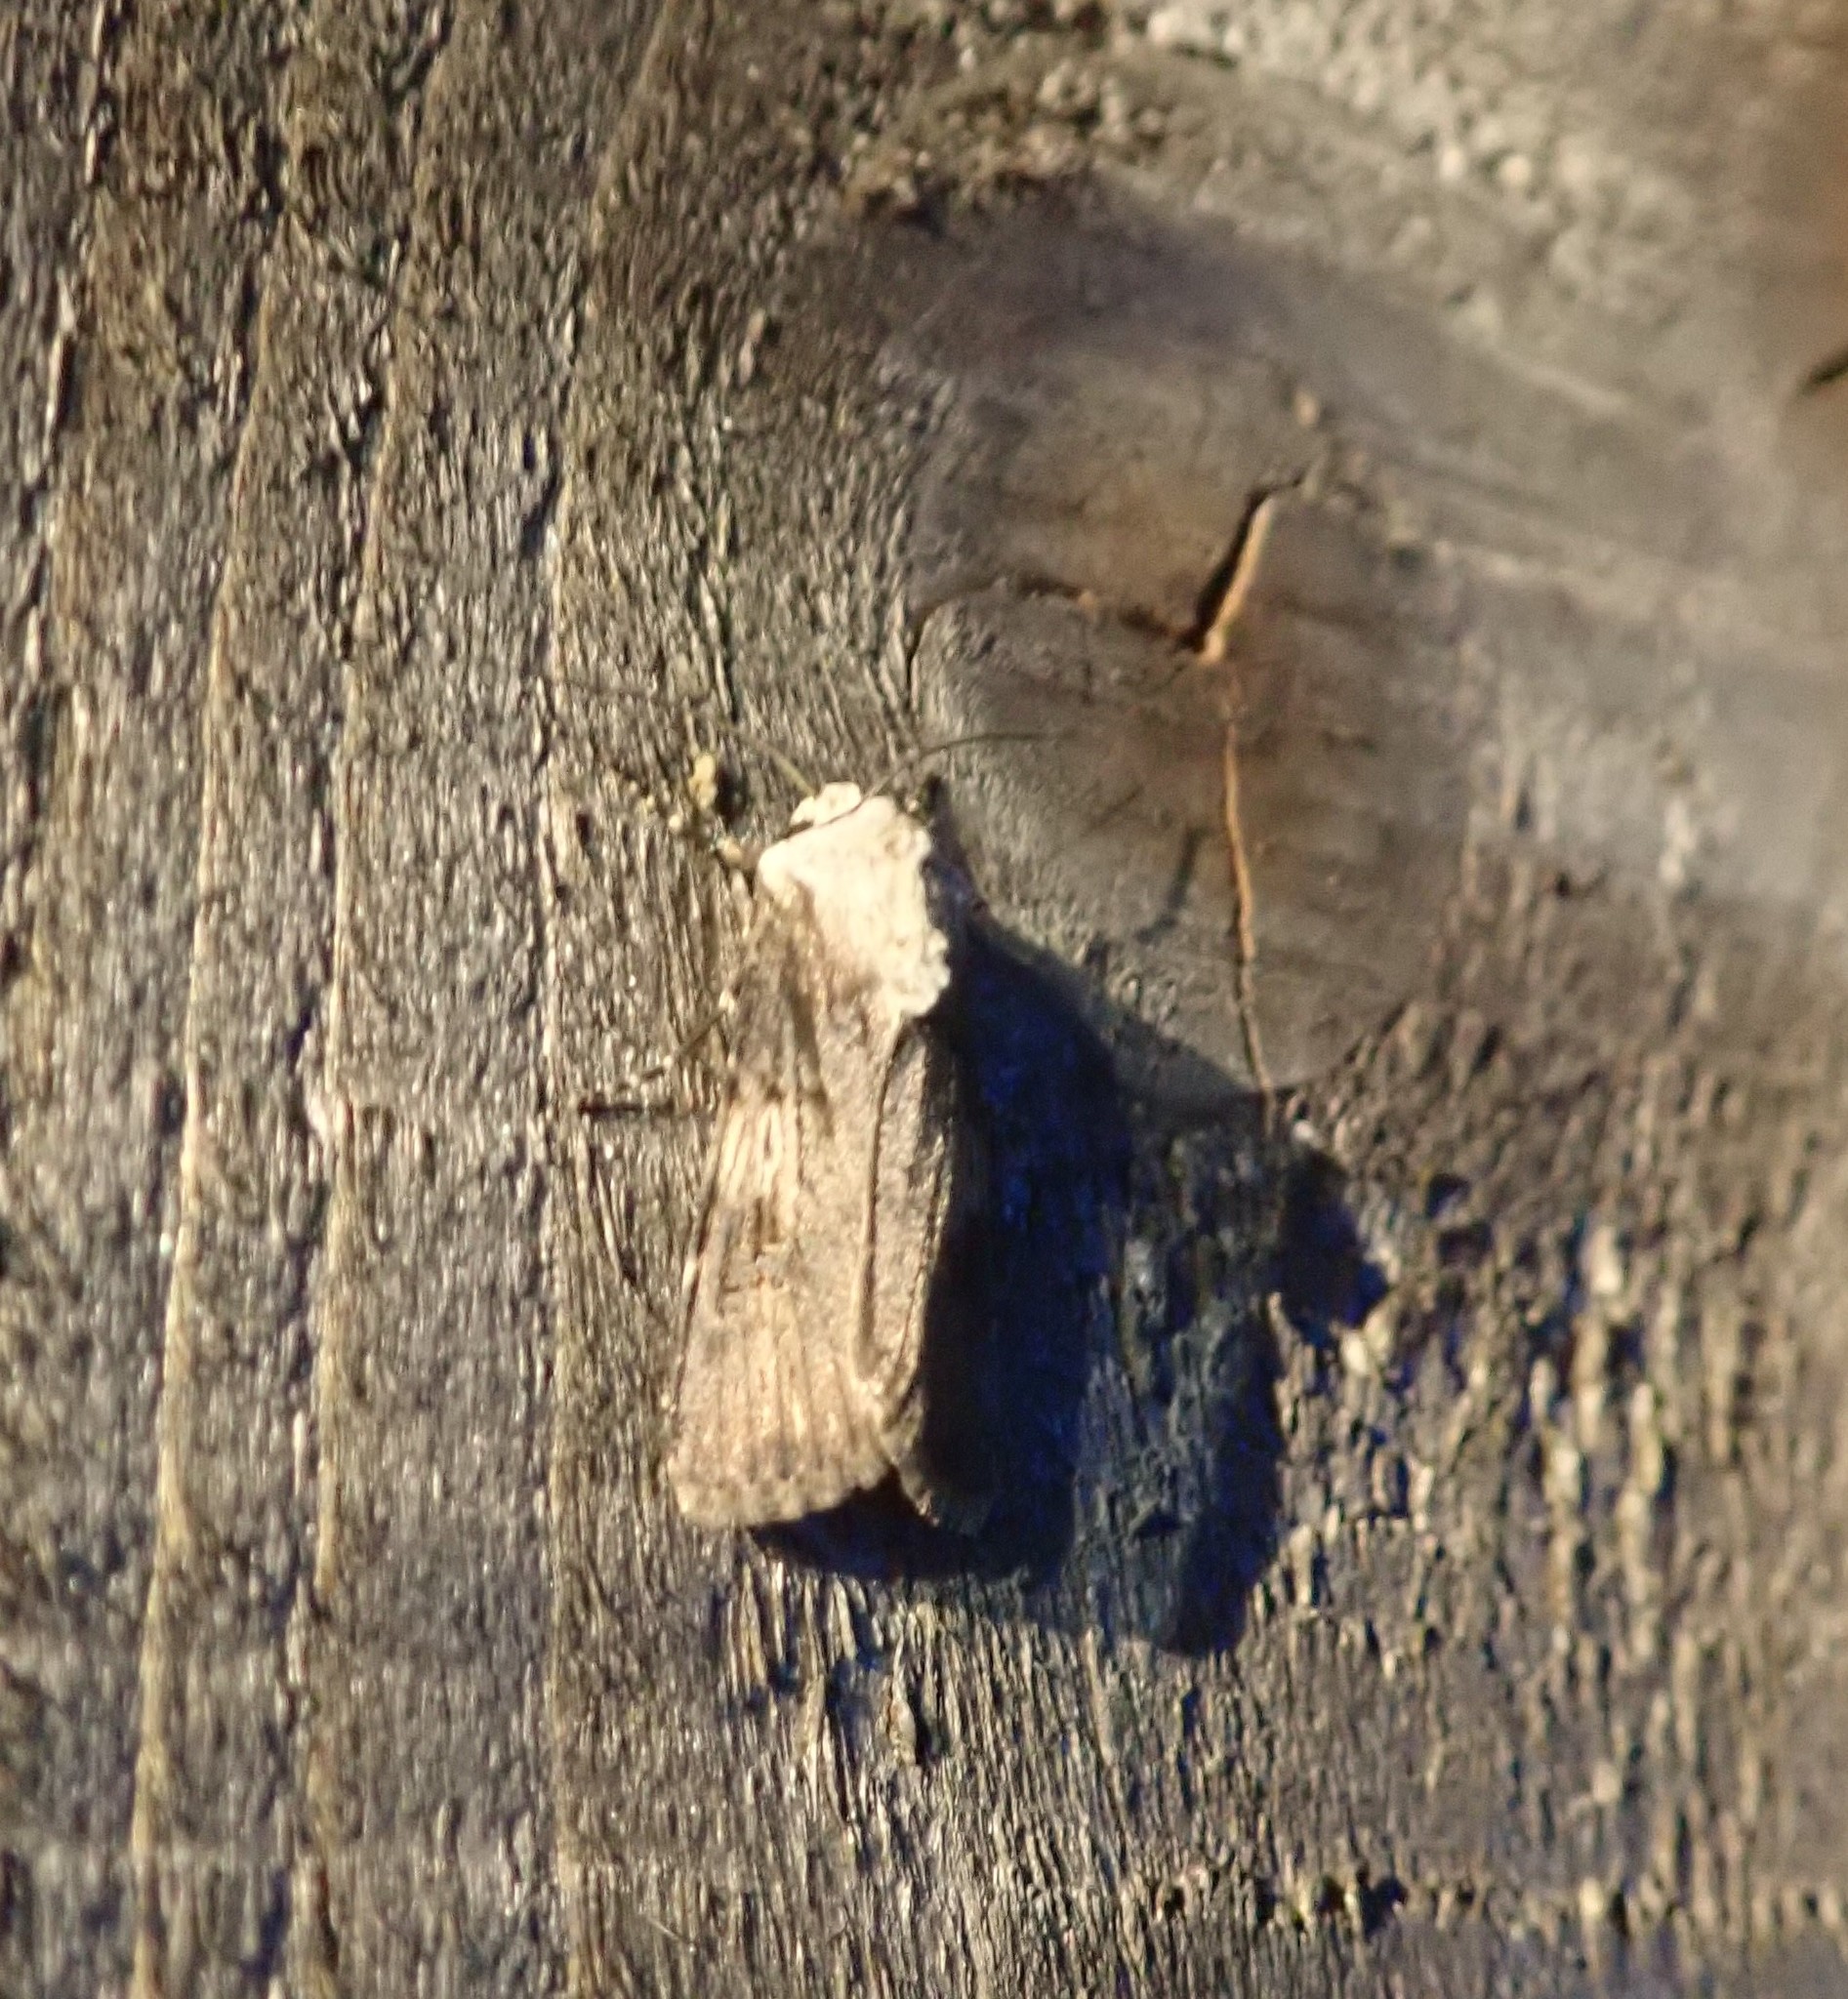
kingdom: Animalia
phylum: Arthropoda
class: Insecta
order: Lepidoptera
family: Noctuidae
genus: Agrotis
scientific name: Agrotis puta
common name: Shuttle-shaped dart
